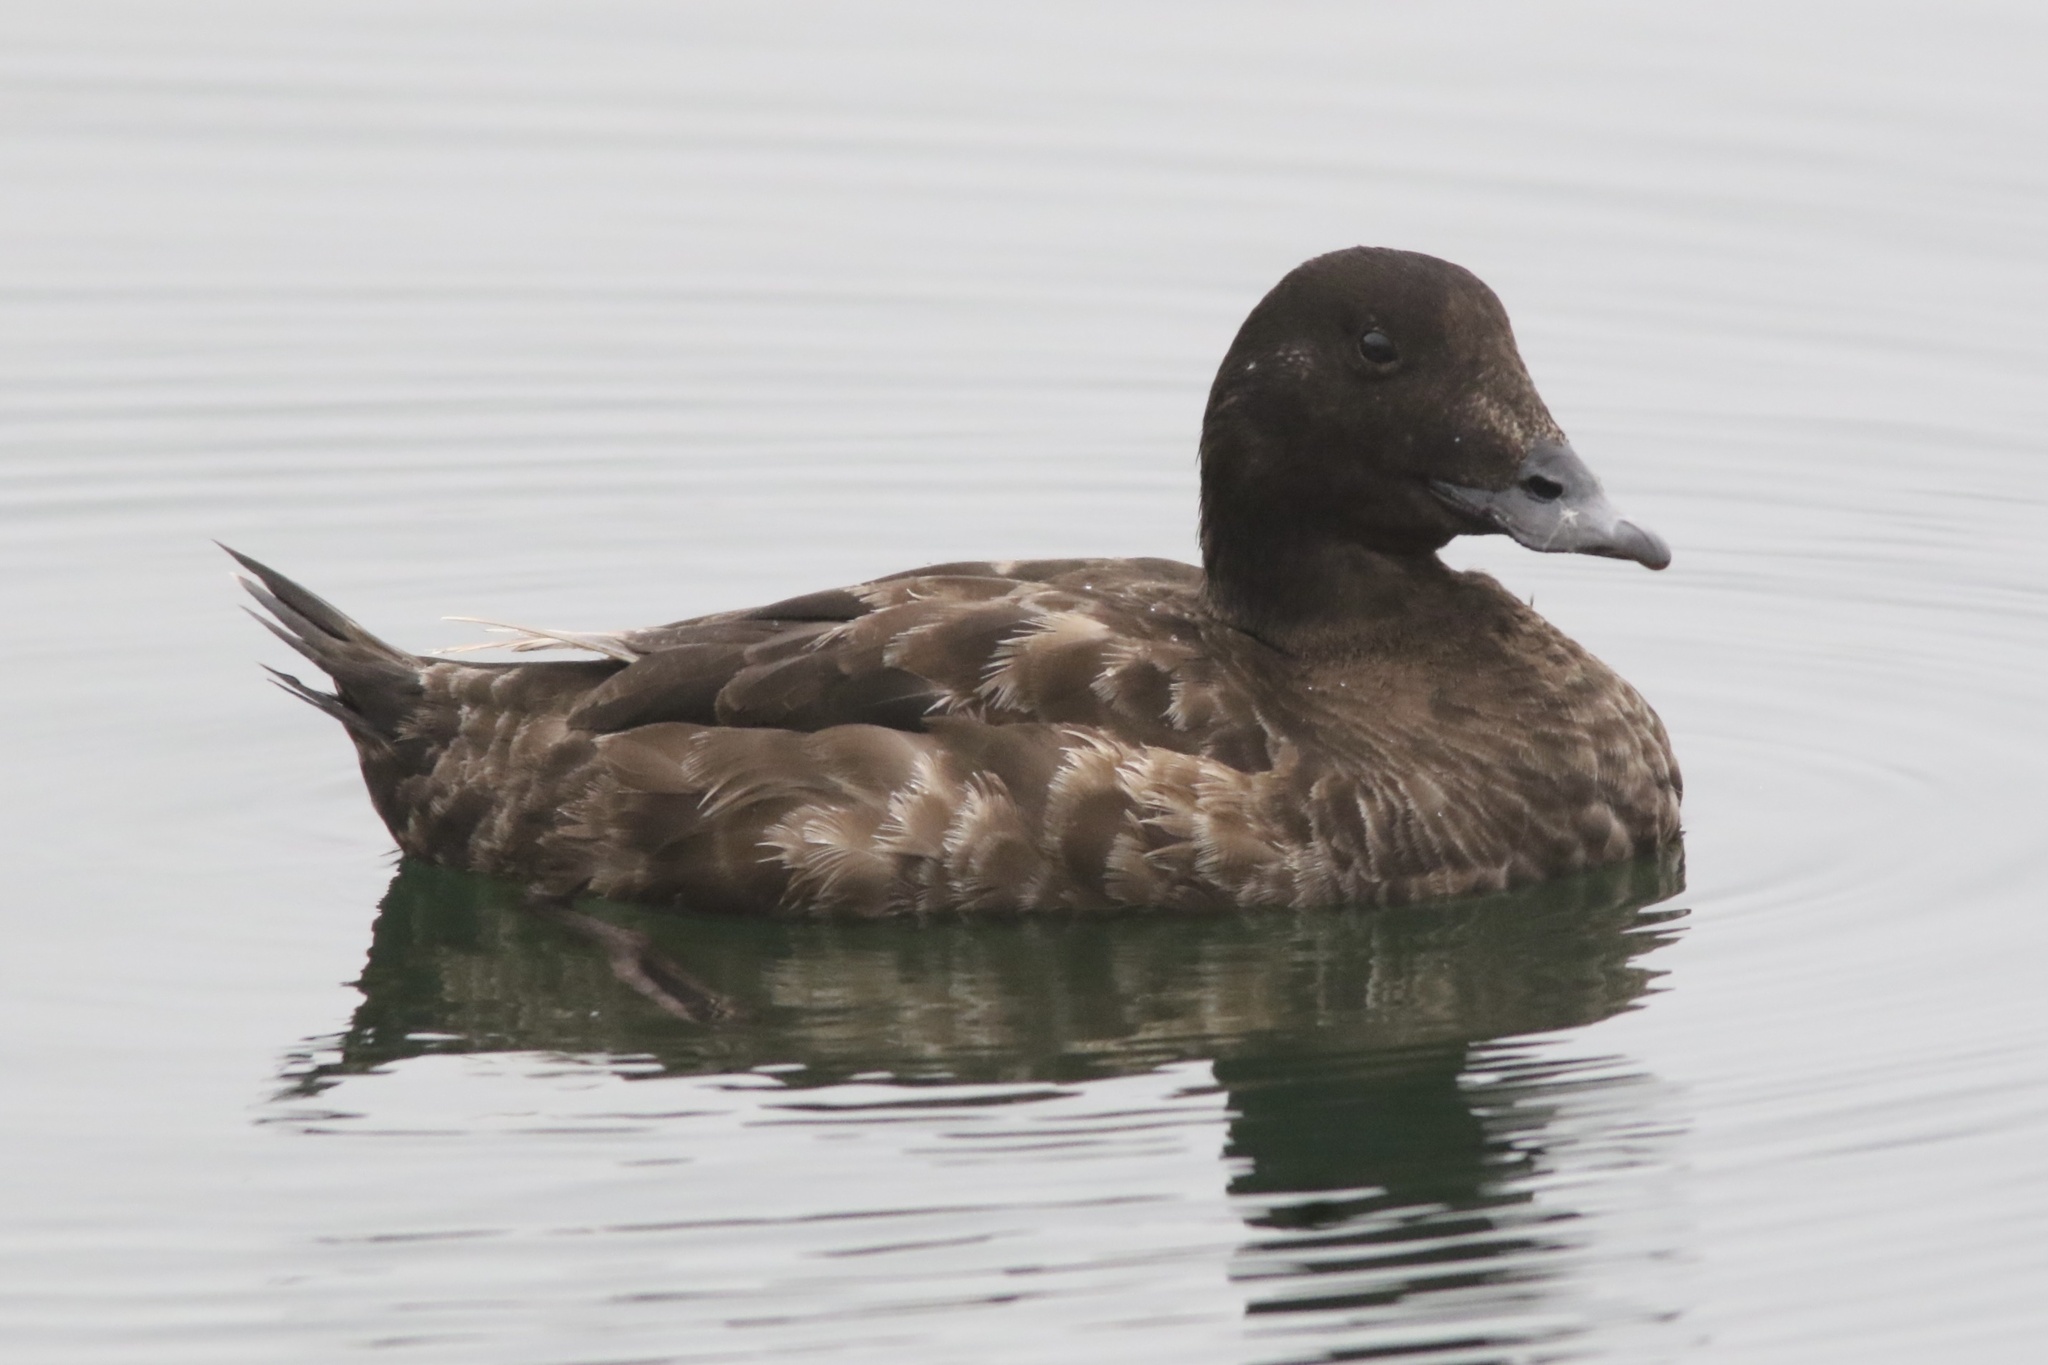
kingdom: Animalia
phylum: Chordata
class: Aves
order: Anseriformes
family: Anatidae
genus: Melanitta
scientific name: Melanitta deglandi
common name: White-winged scoter
